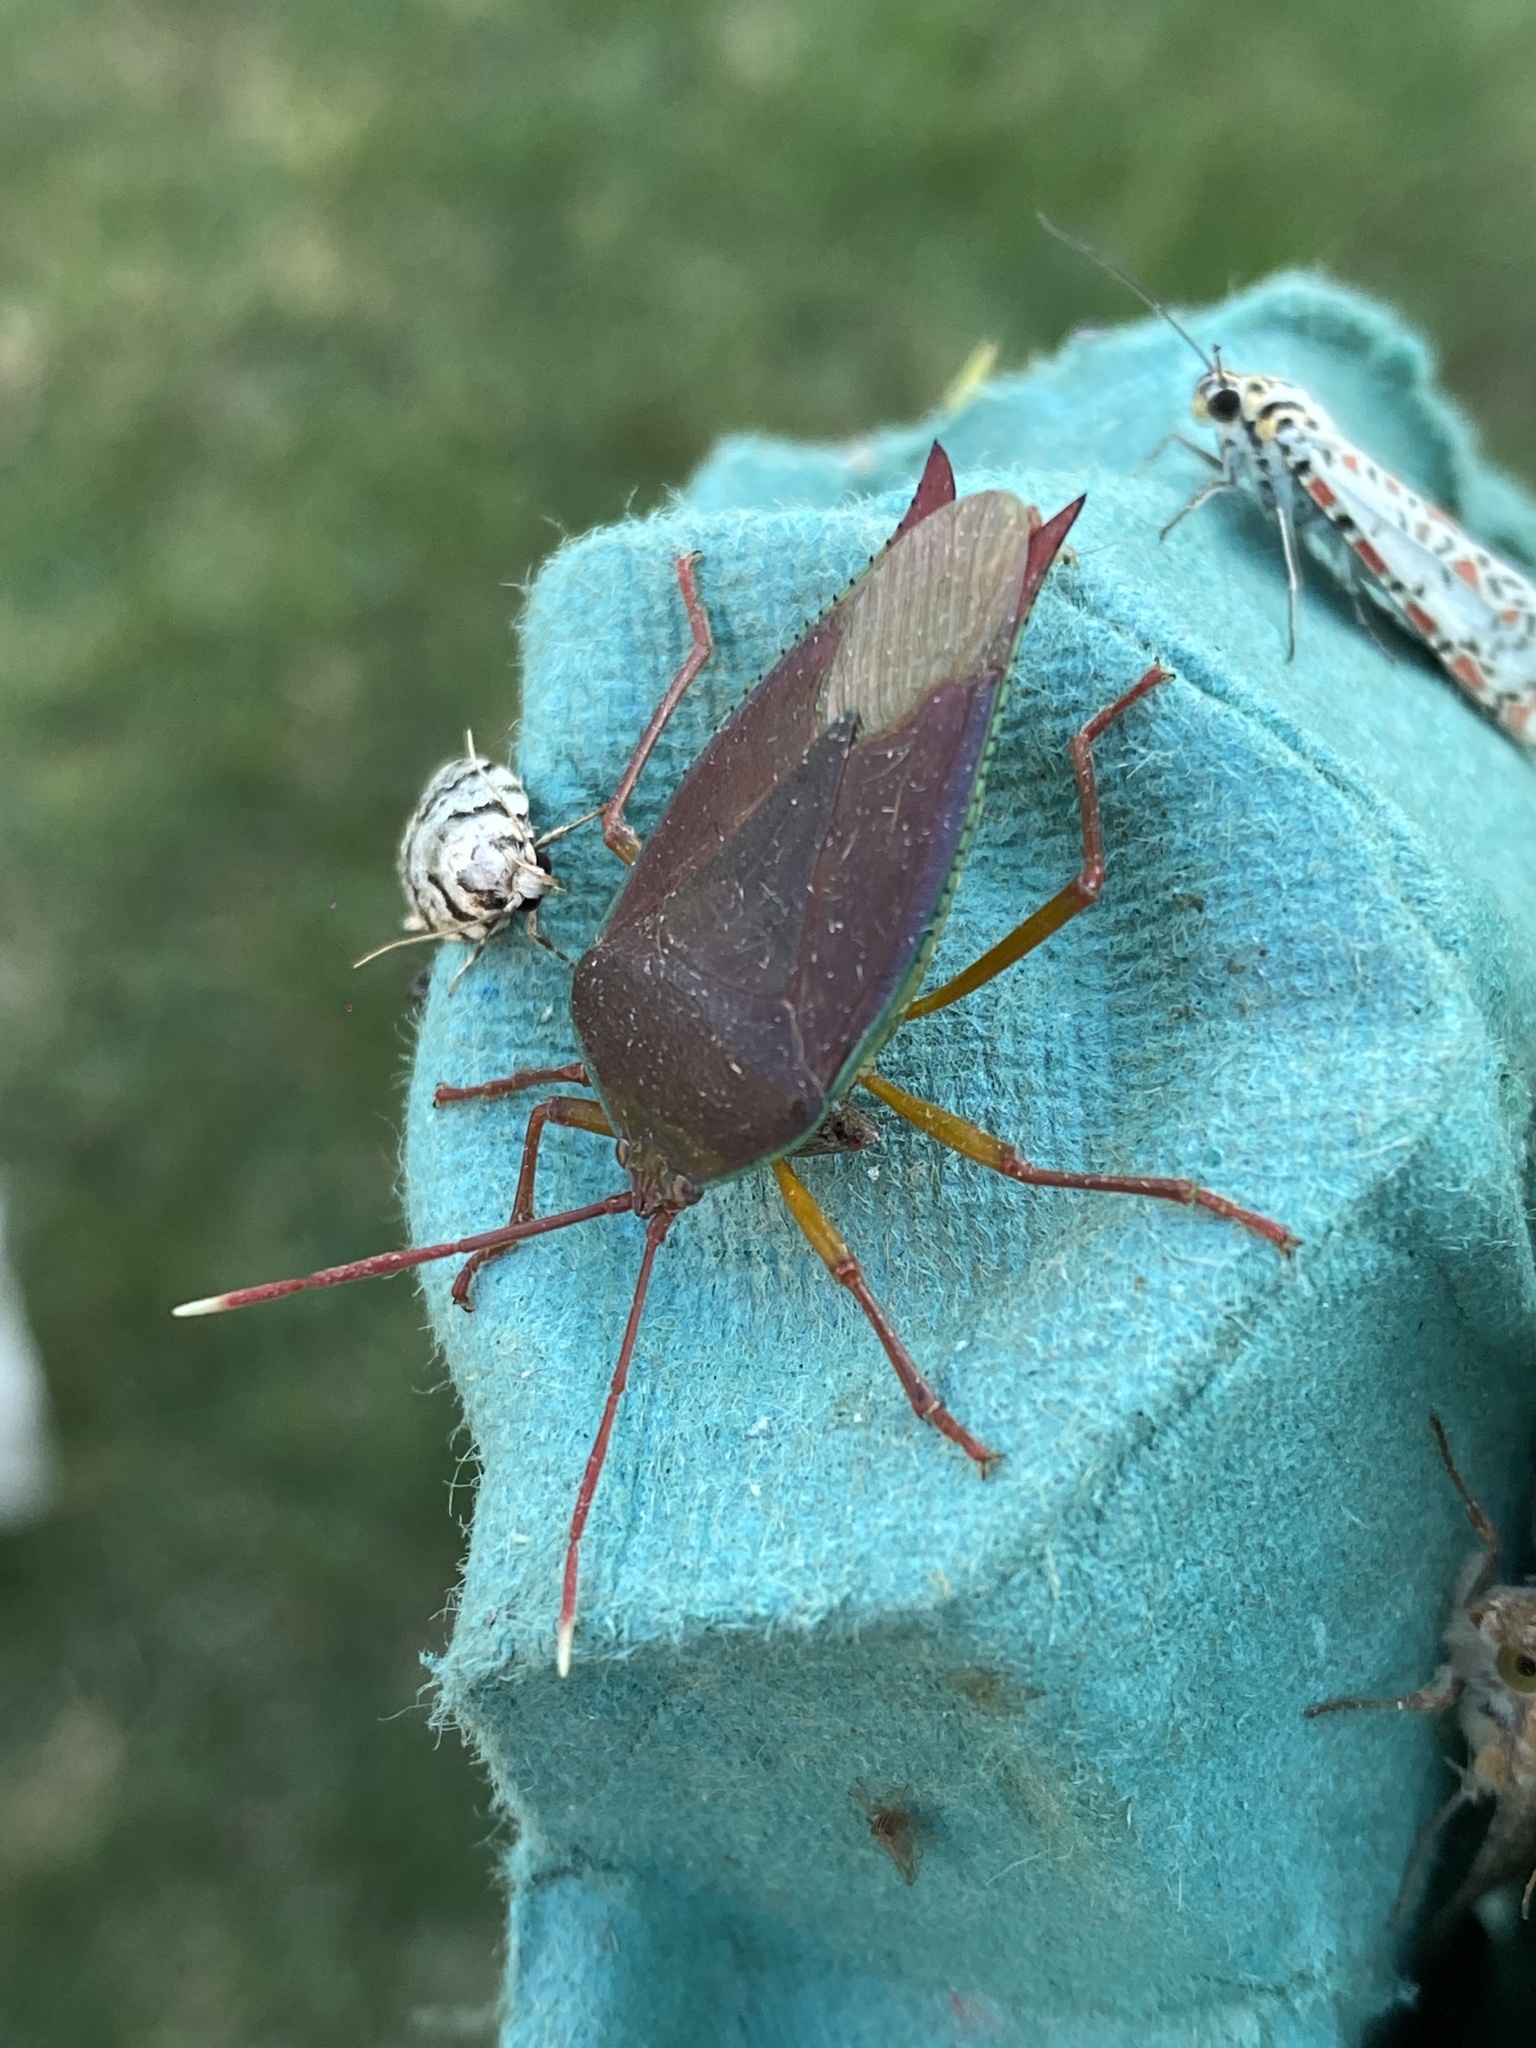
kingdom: Animalia
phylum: Arthropoda
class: Insecta
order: Hemiptera
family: Tessaratomidae
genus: Lyramorpha
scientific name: Lyramorpha rosea
